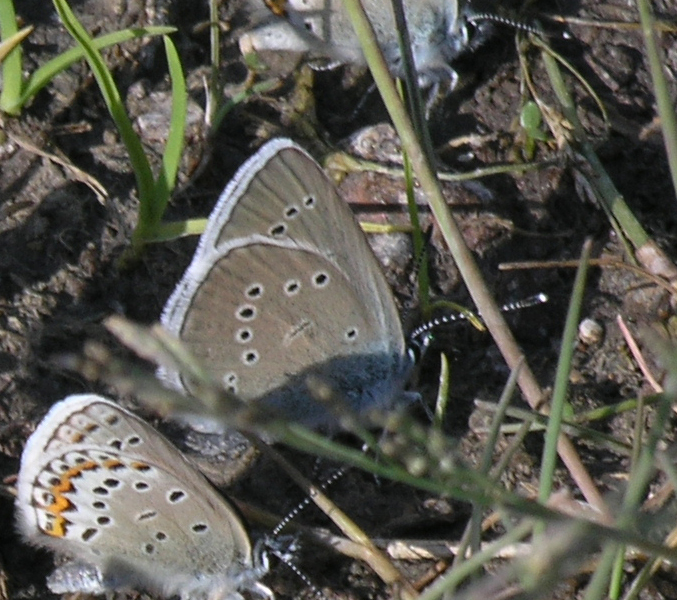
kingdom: Animalia
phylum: Arthropoda
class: Insecta
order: Lepidoptera
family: Lycaenidae
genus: Cyaniris
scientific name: Cyaniris semiargus
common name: Mazarine blue
